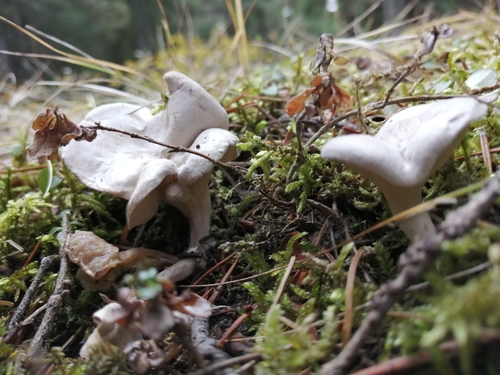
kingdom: Fungi
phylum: Basidiomycota
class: Agaricomycetes
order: Agaricales
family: Entolomataceae
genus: Clitopilus
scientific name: Clitopilus prunulus
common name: The miller
